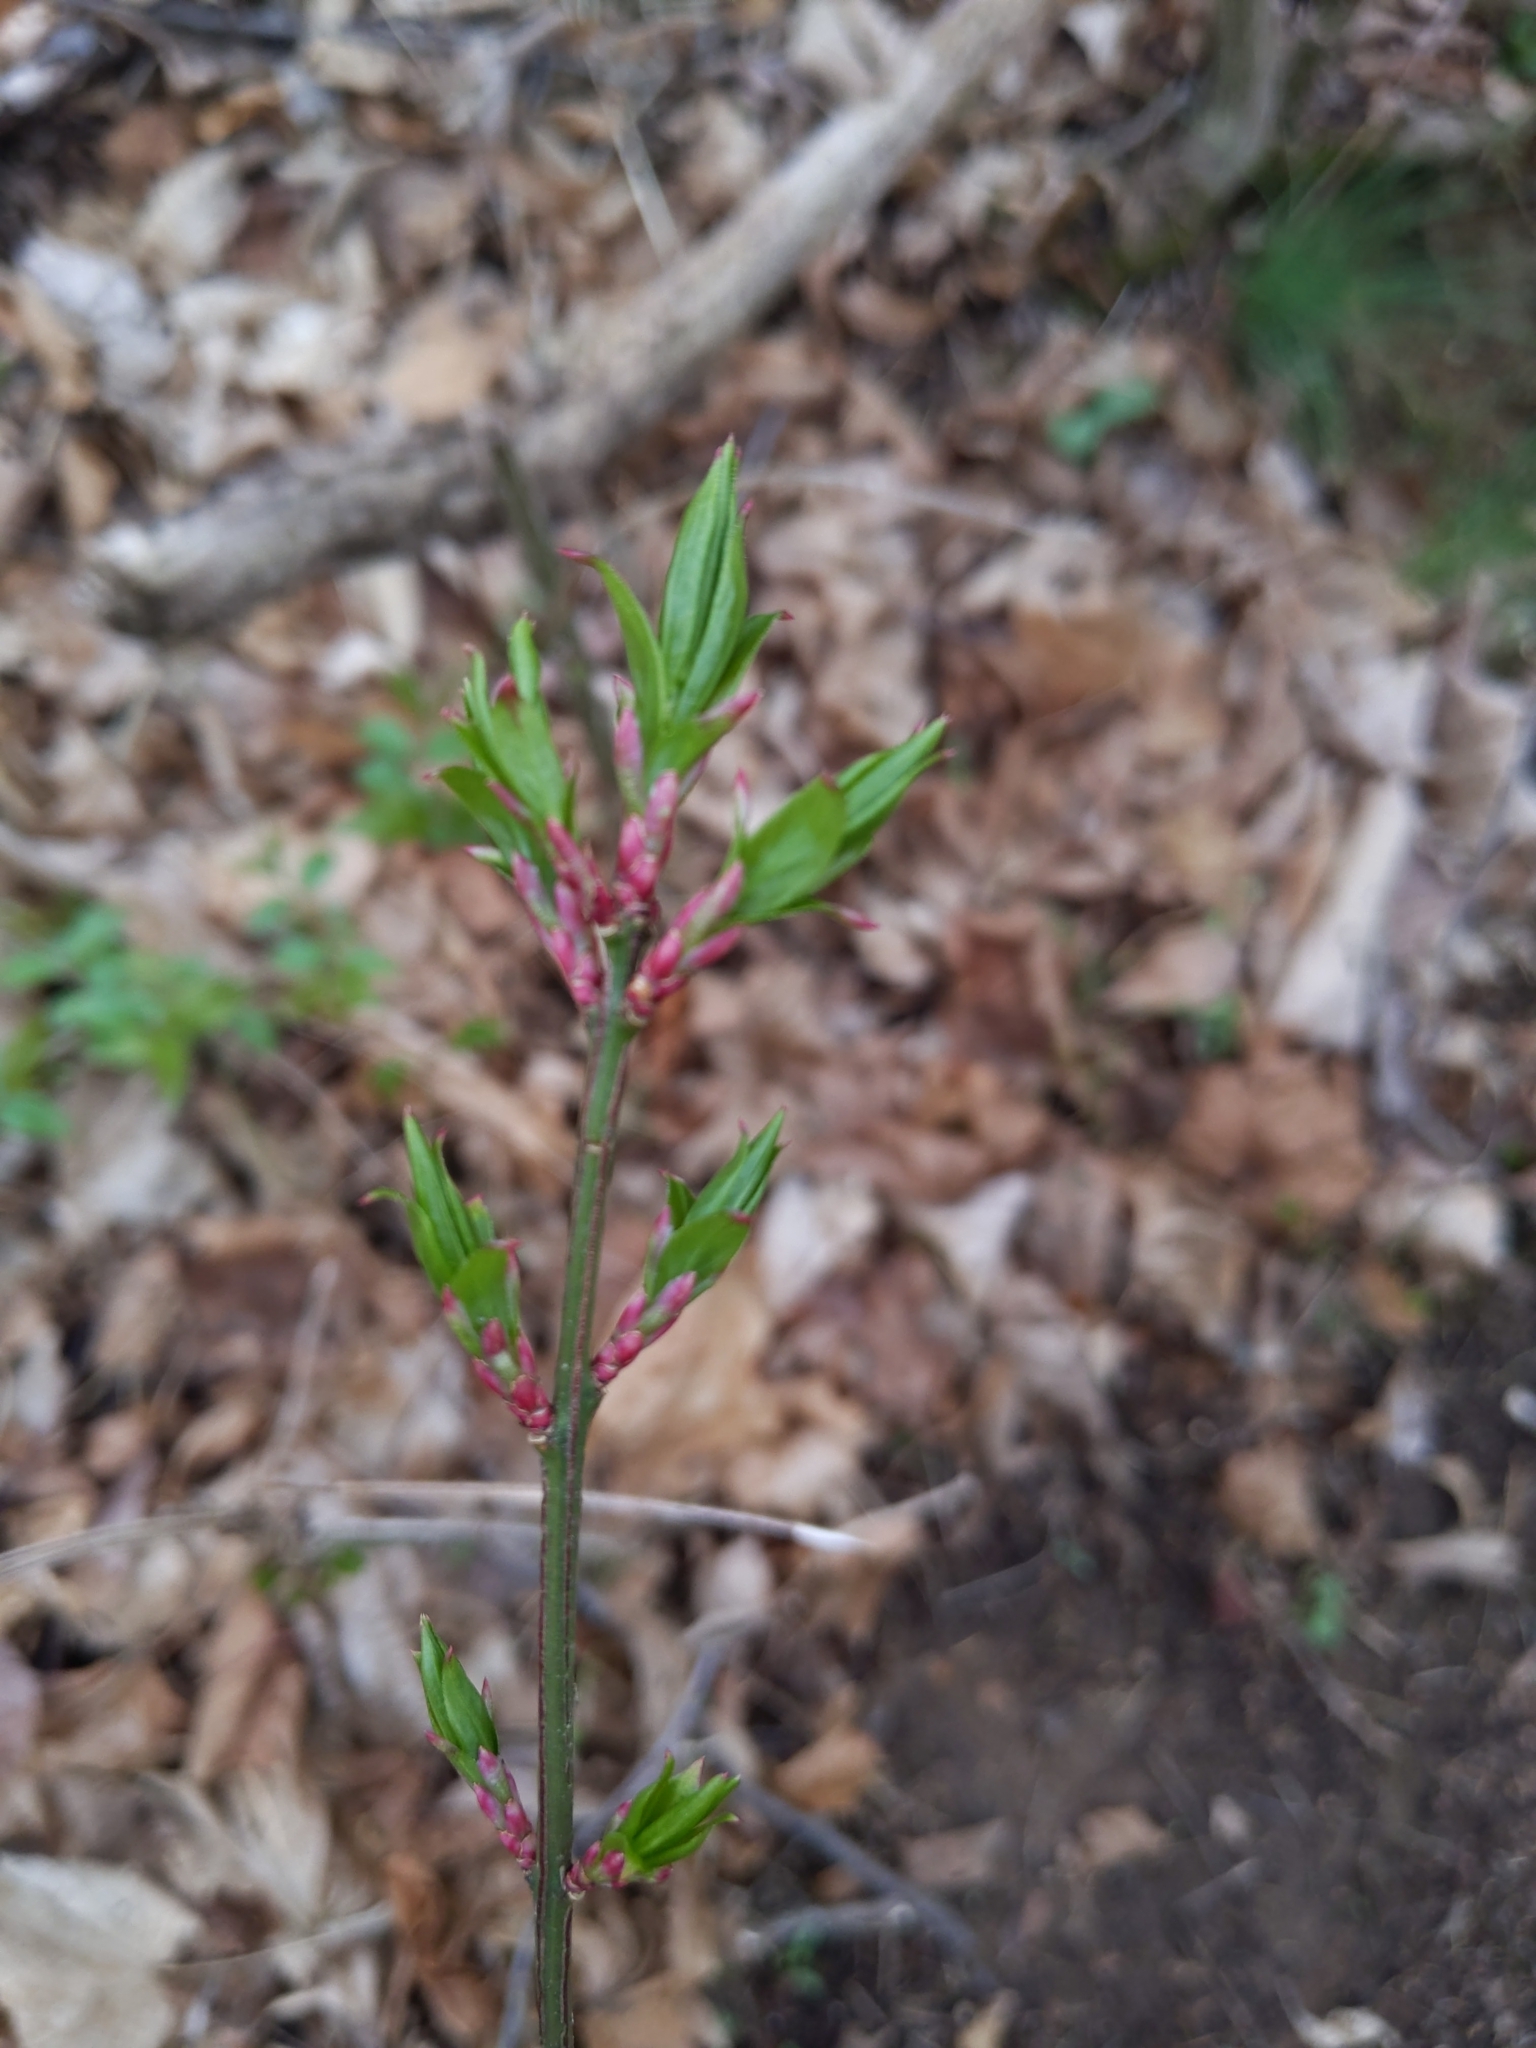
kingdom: Plantae
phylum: Tracheophyta
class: Magnoliopsida
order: Celastrales
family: Celastraceae
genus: Euonymus
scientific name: Euonymus alatus
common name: Winged euonymus
